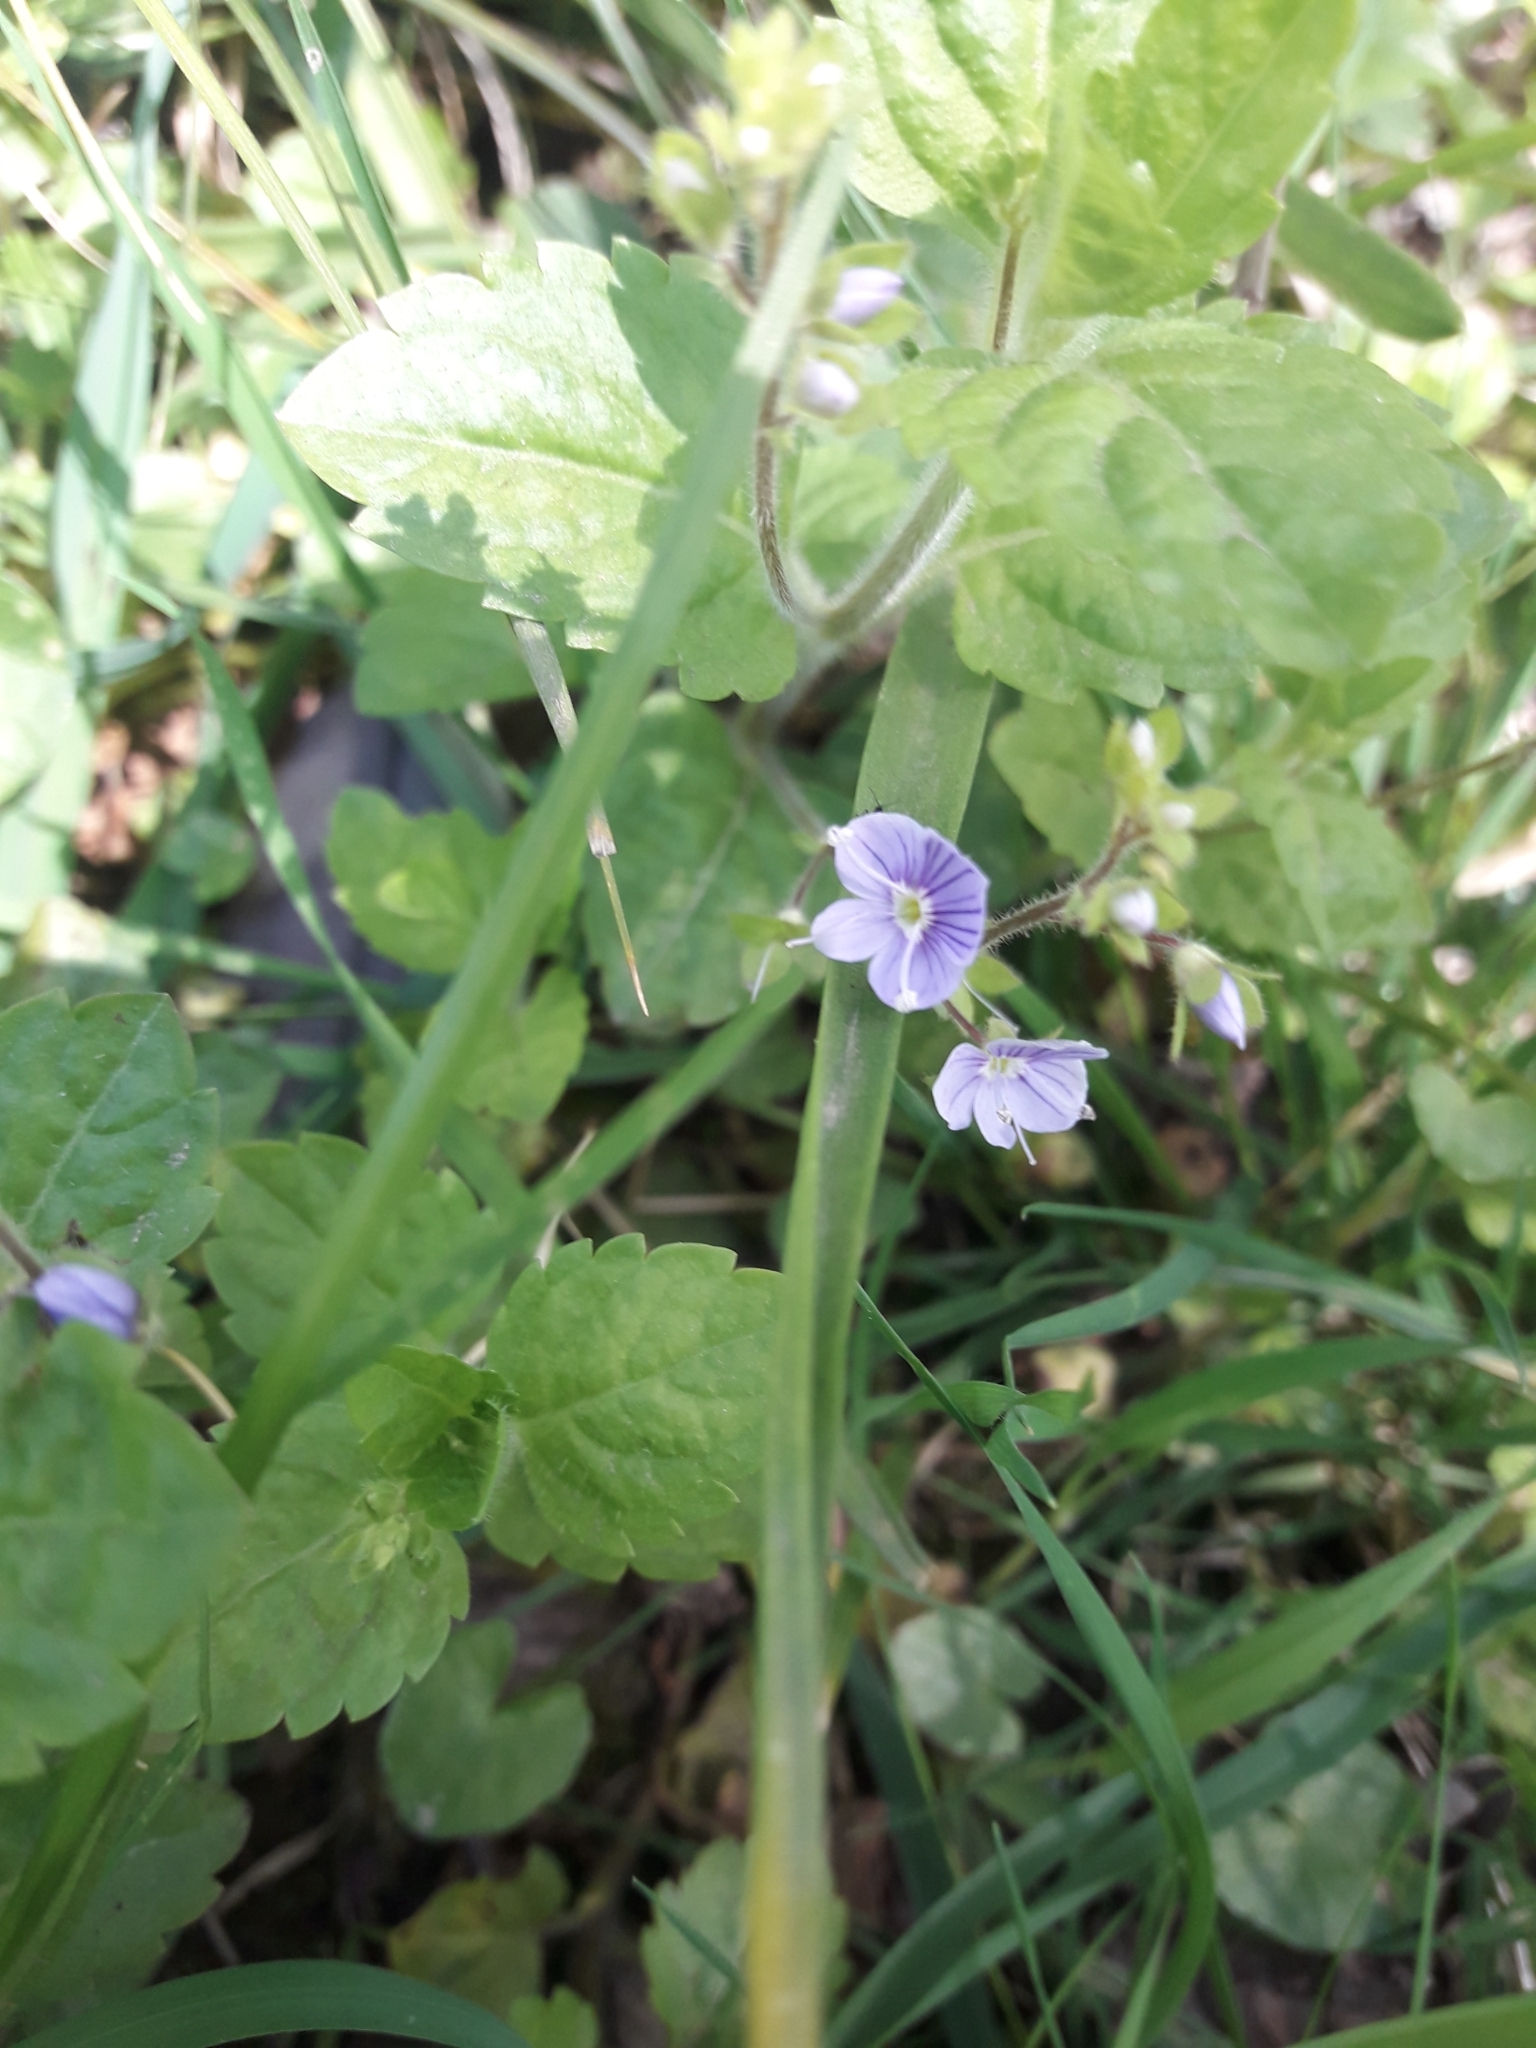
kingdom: Plantae
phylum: Tracheophyta
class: Magnoliopsida
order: Lamiales
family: Plantaginaceae
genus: Veronica
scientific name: Veronica montana
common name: Wood speedwell
